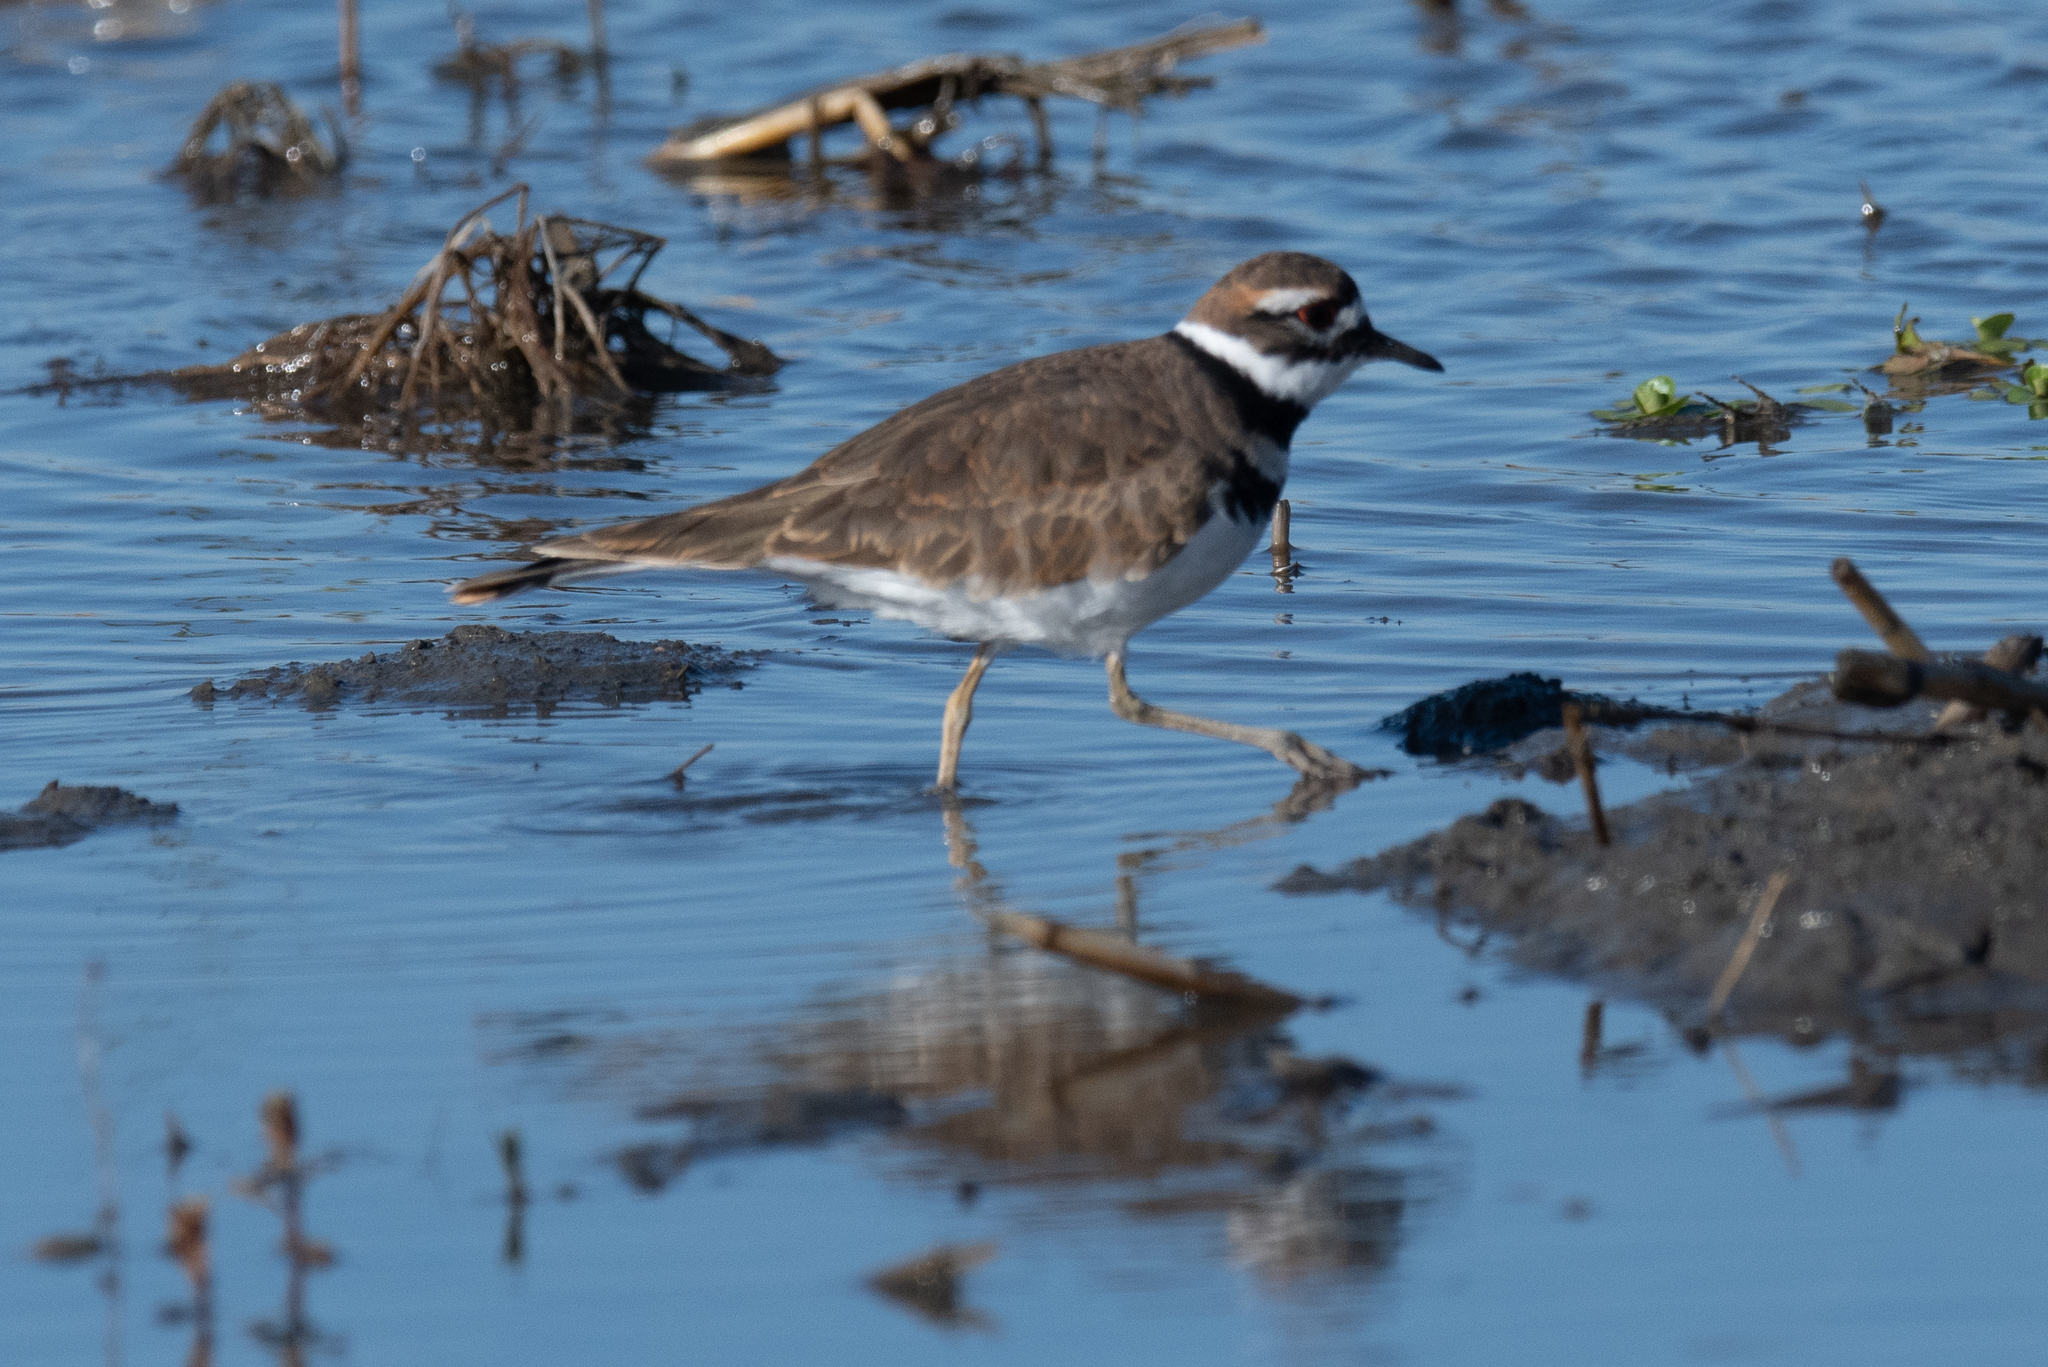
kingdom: Animalia
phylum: Chordata
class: Aves
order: Charadriiformes
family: Charadriidae
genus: Charadrius
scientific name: Charadrius vociferus
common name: Killdeer
